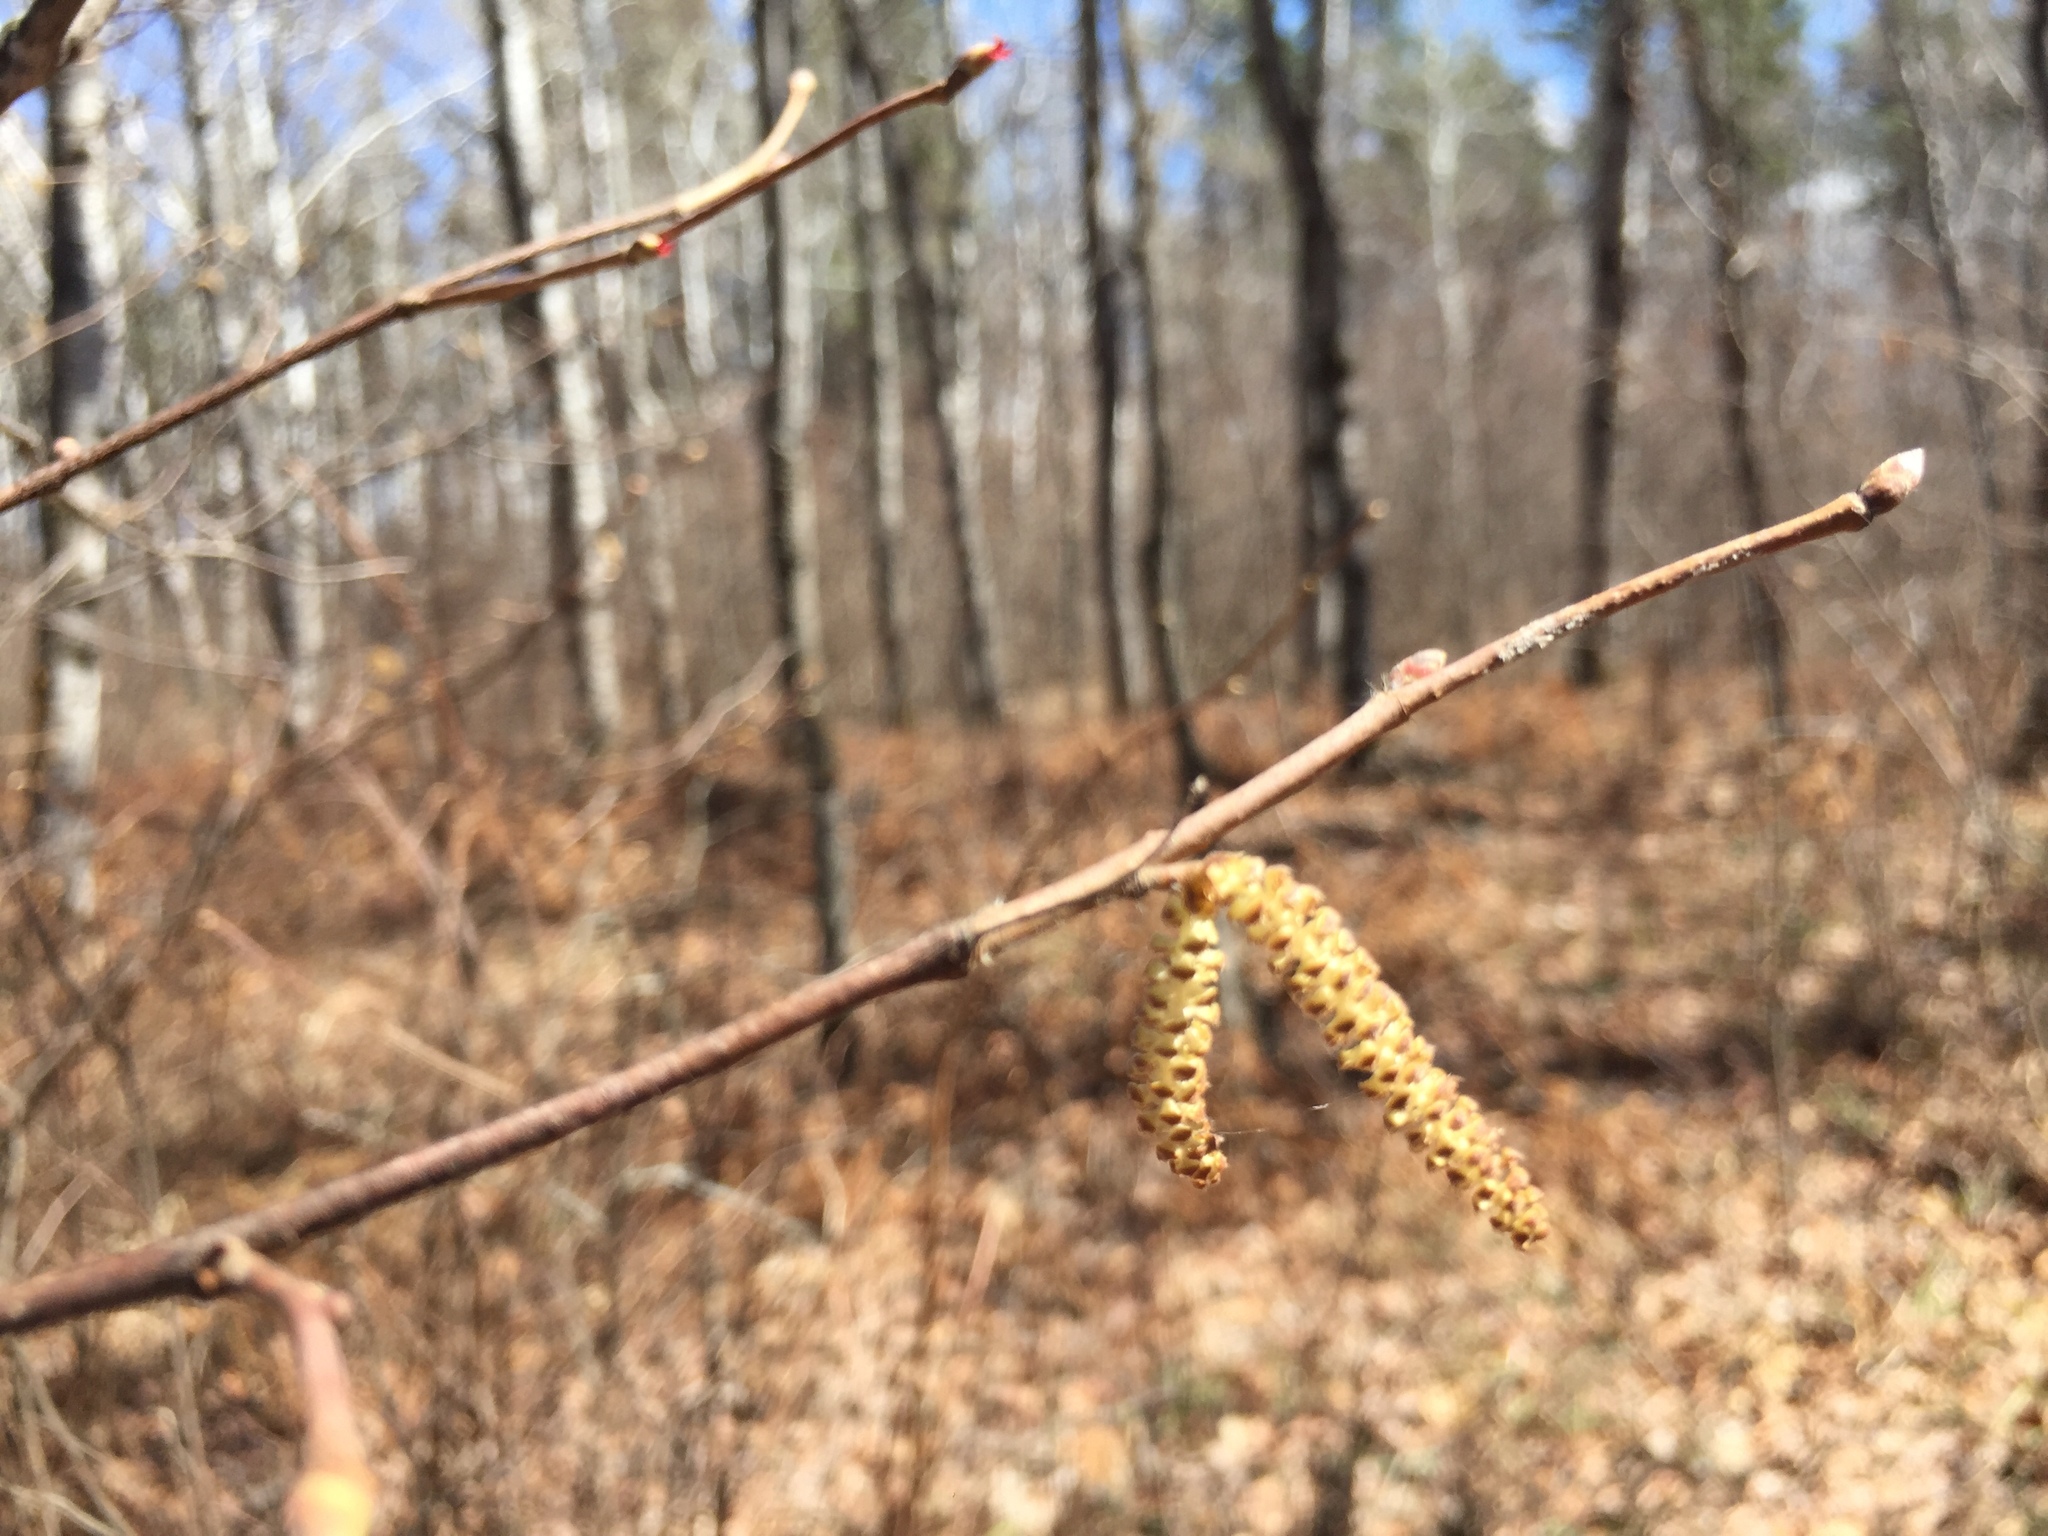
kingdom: Plantae
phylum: Tracheophyta
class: Magnoliopsida
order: Fagales
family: Betulaceae
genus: Corylus
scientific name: Corylus cornuta
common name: Beaked hazel
